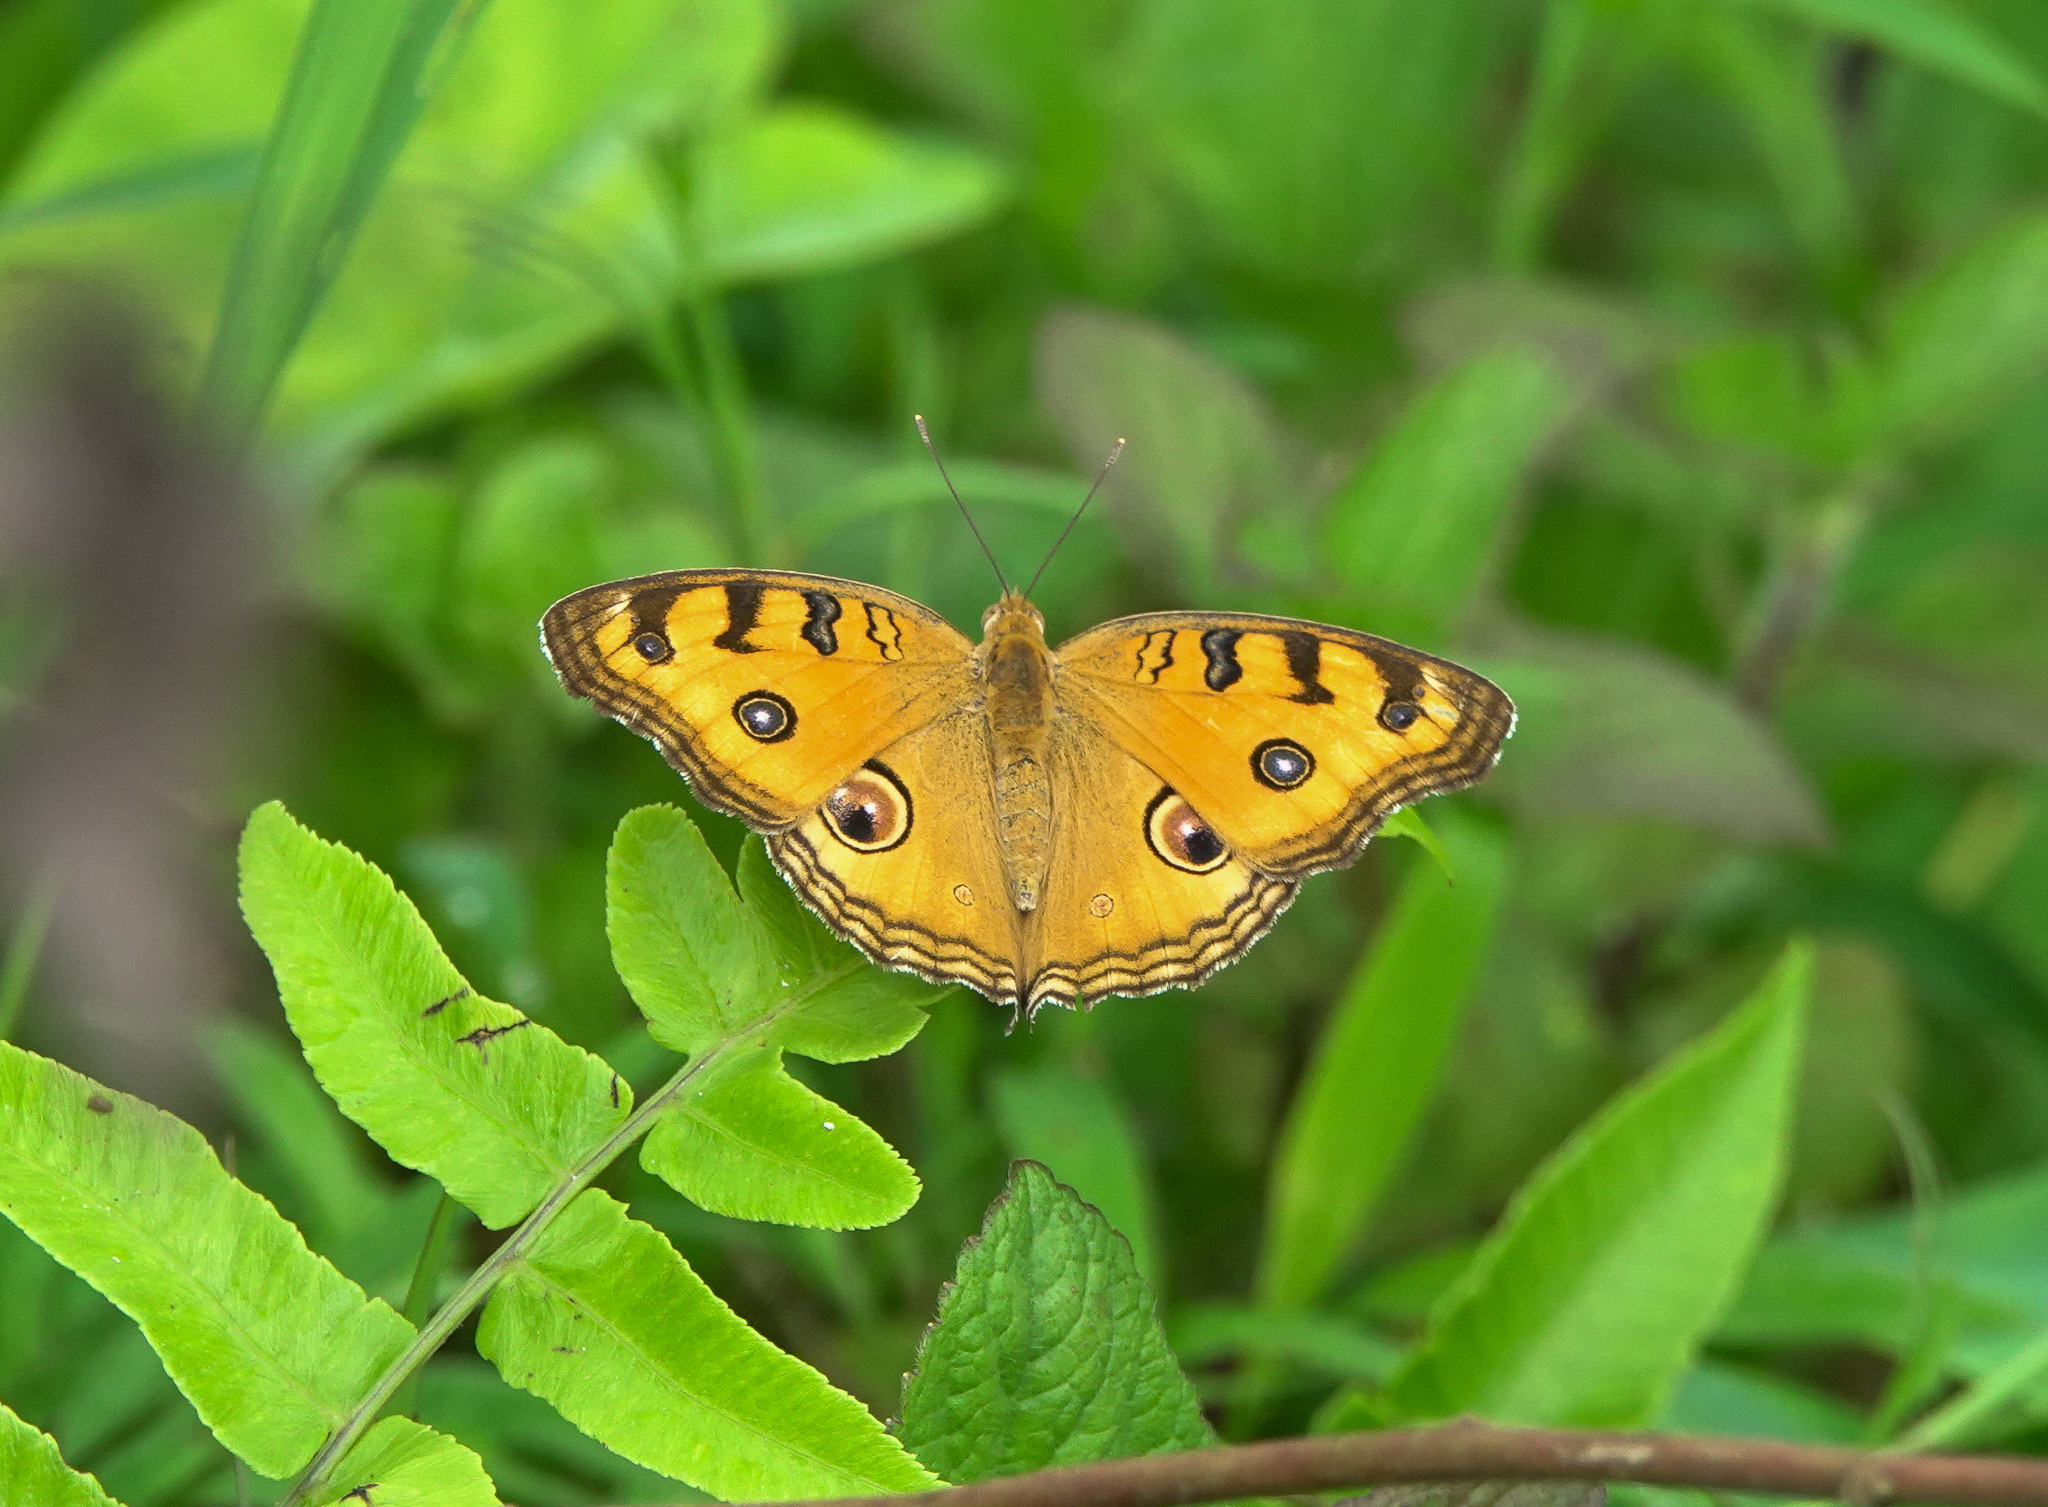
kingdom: Animalia
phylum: Arthropoda
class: Insecta
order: Lepidoptera
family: Nymphalidae
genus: Junonia
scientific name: Junonia almana
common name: Peacock pansy
